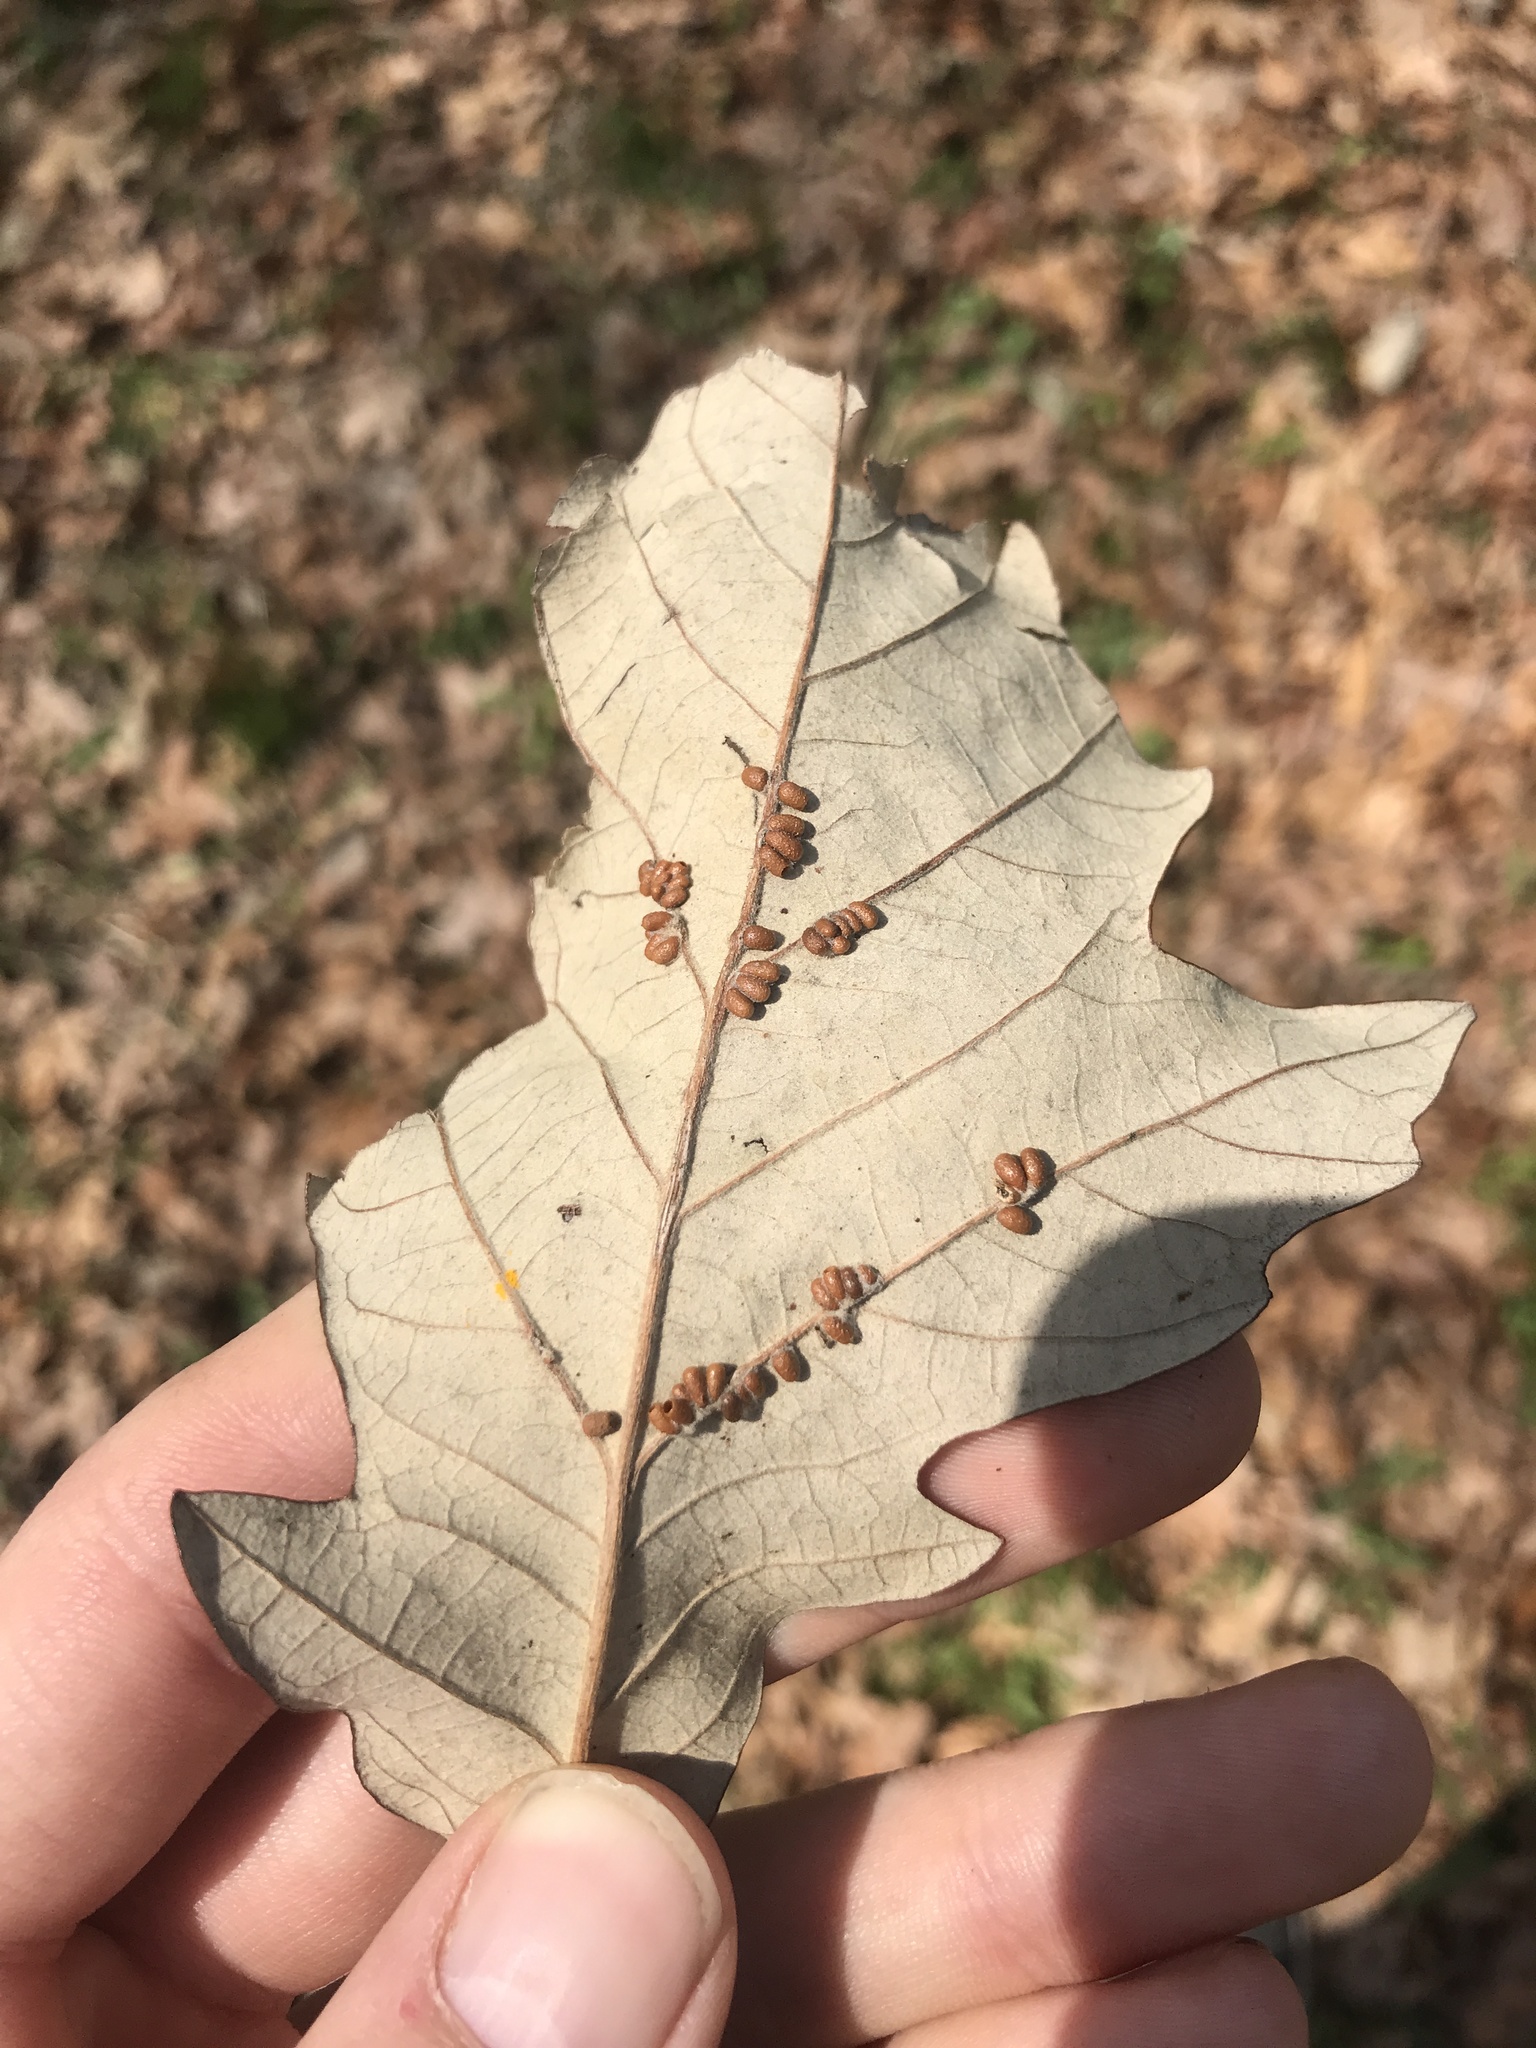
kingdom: Animalia
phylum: Arthropoda
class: Insecta
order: Hymenoptera
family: Cynipidae
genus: Andricus
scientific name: Andricus Druon ignotum
